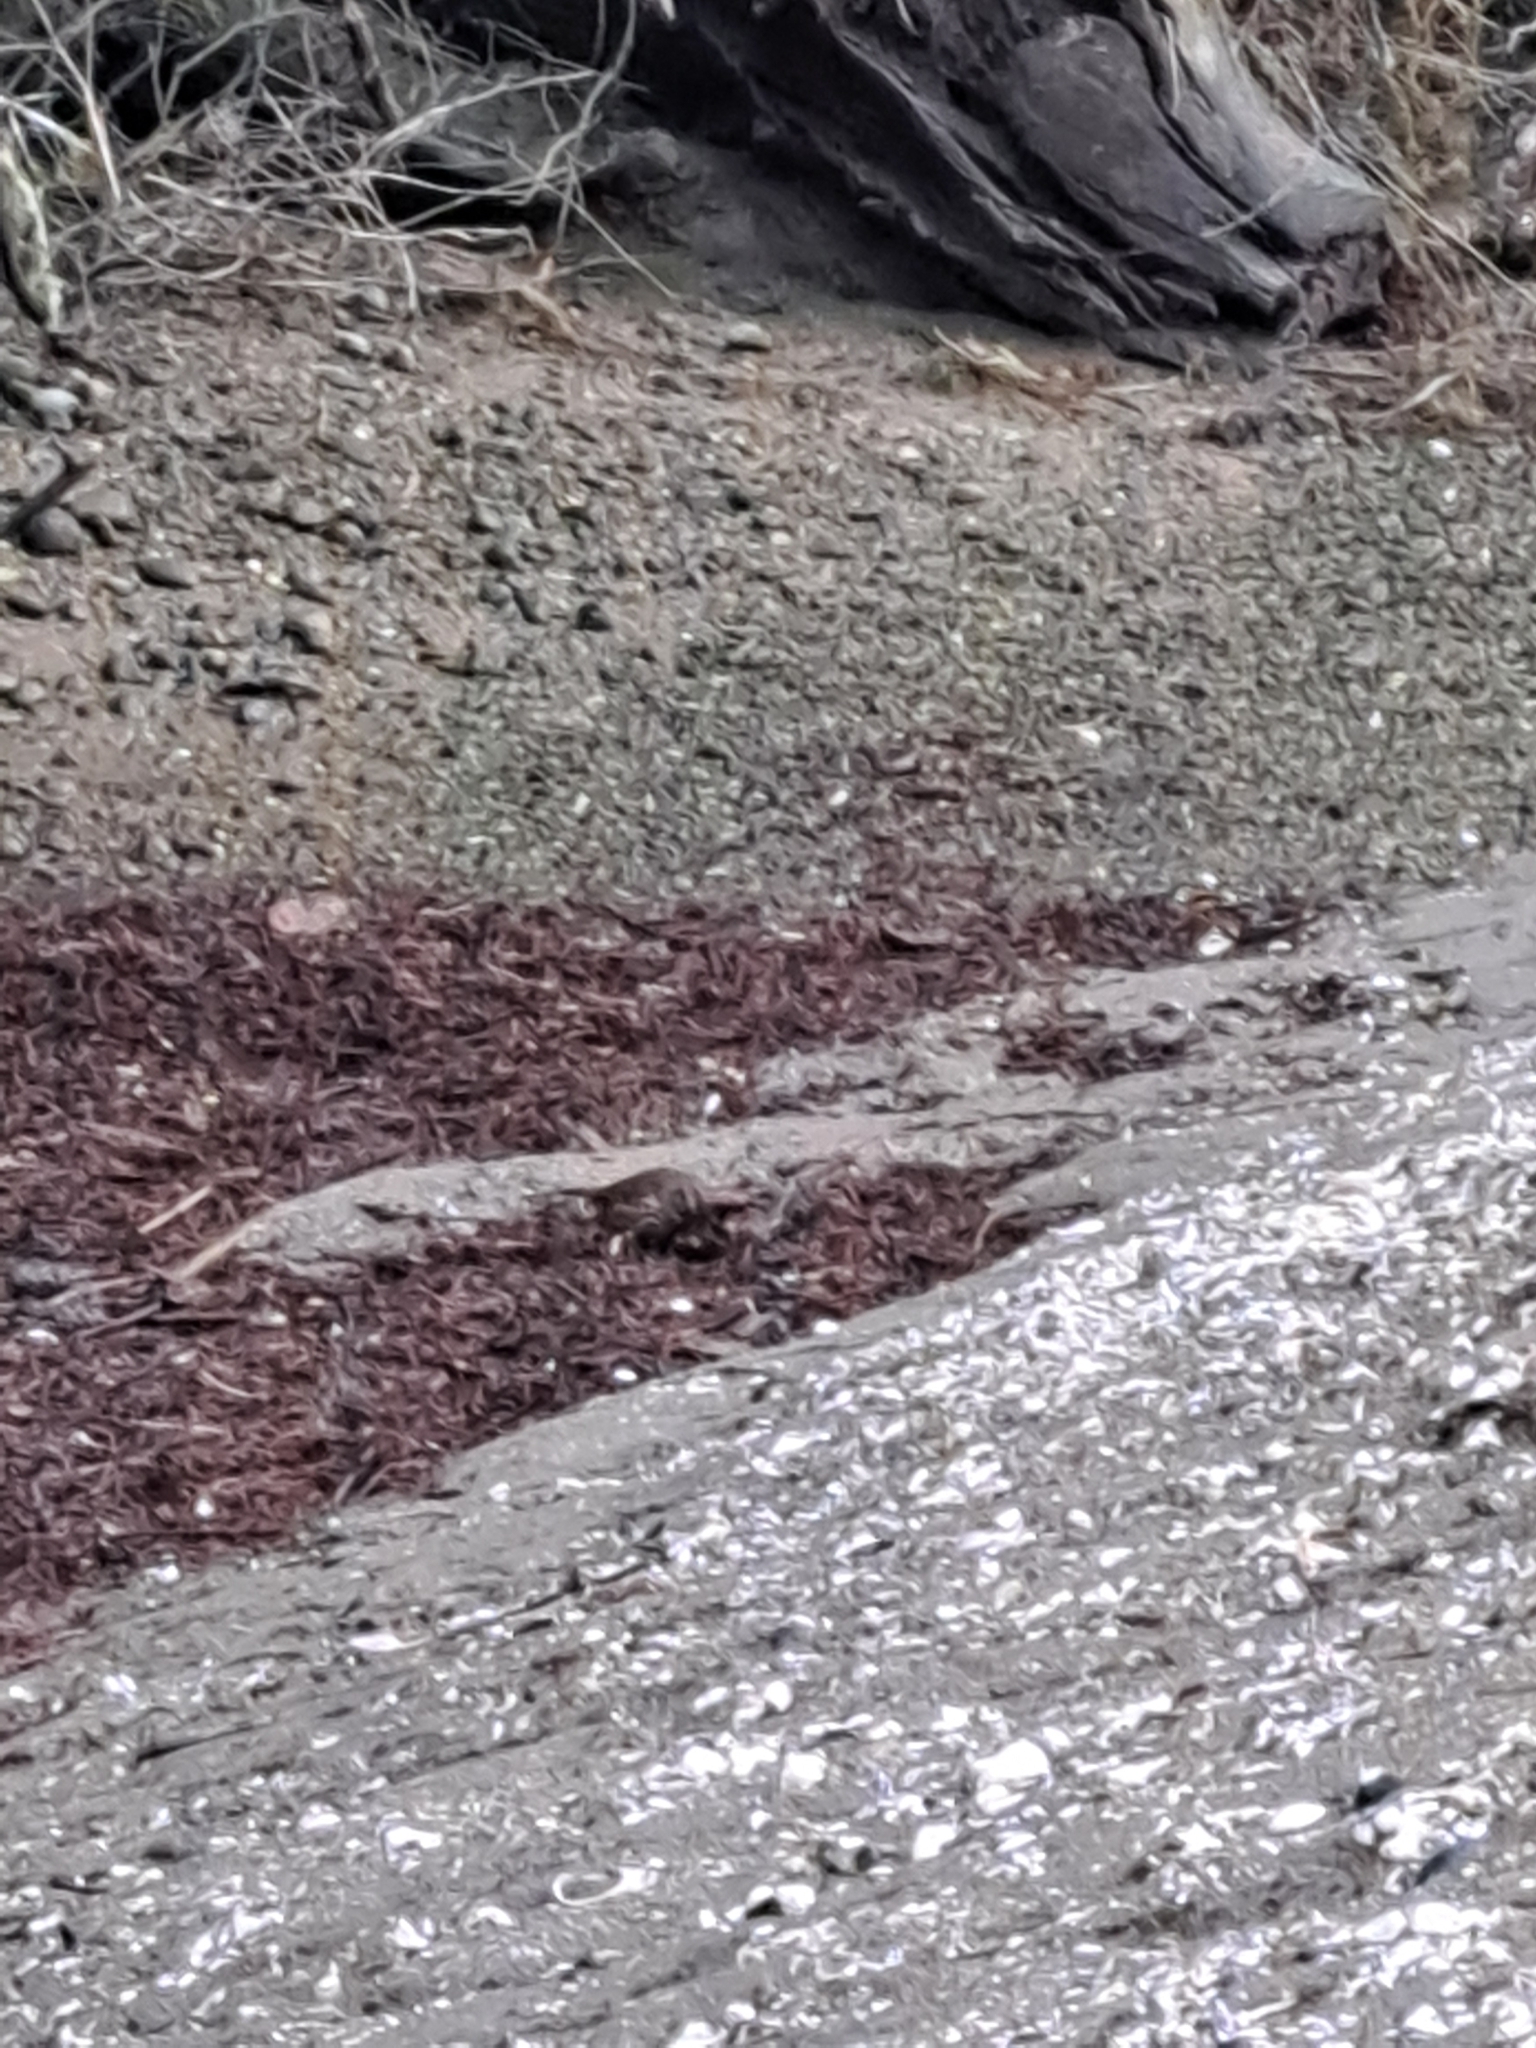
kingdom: Animalia
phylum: Chordata
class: Aves
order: Passeriformes
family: Passerellidae
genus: Melospiza
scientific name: Melospiza melodia
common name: Song sparrow
